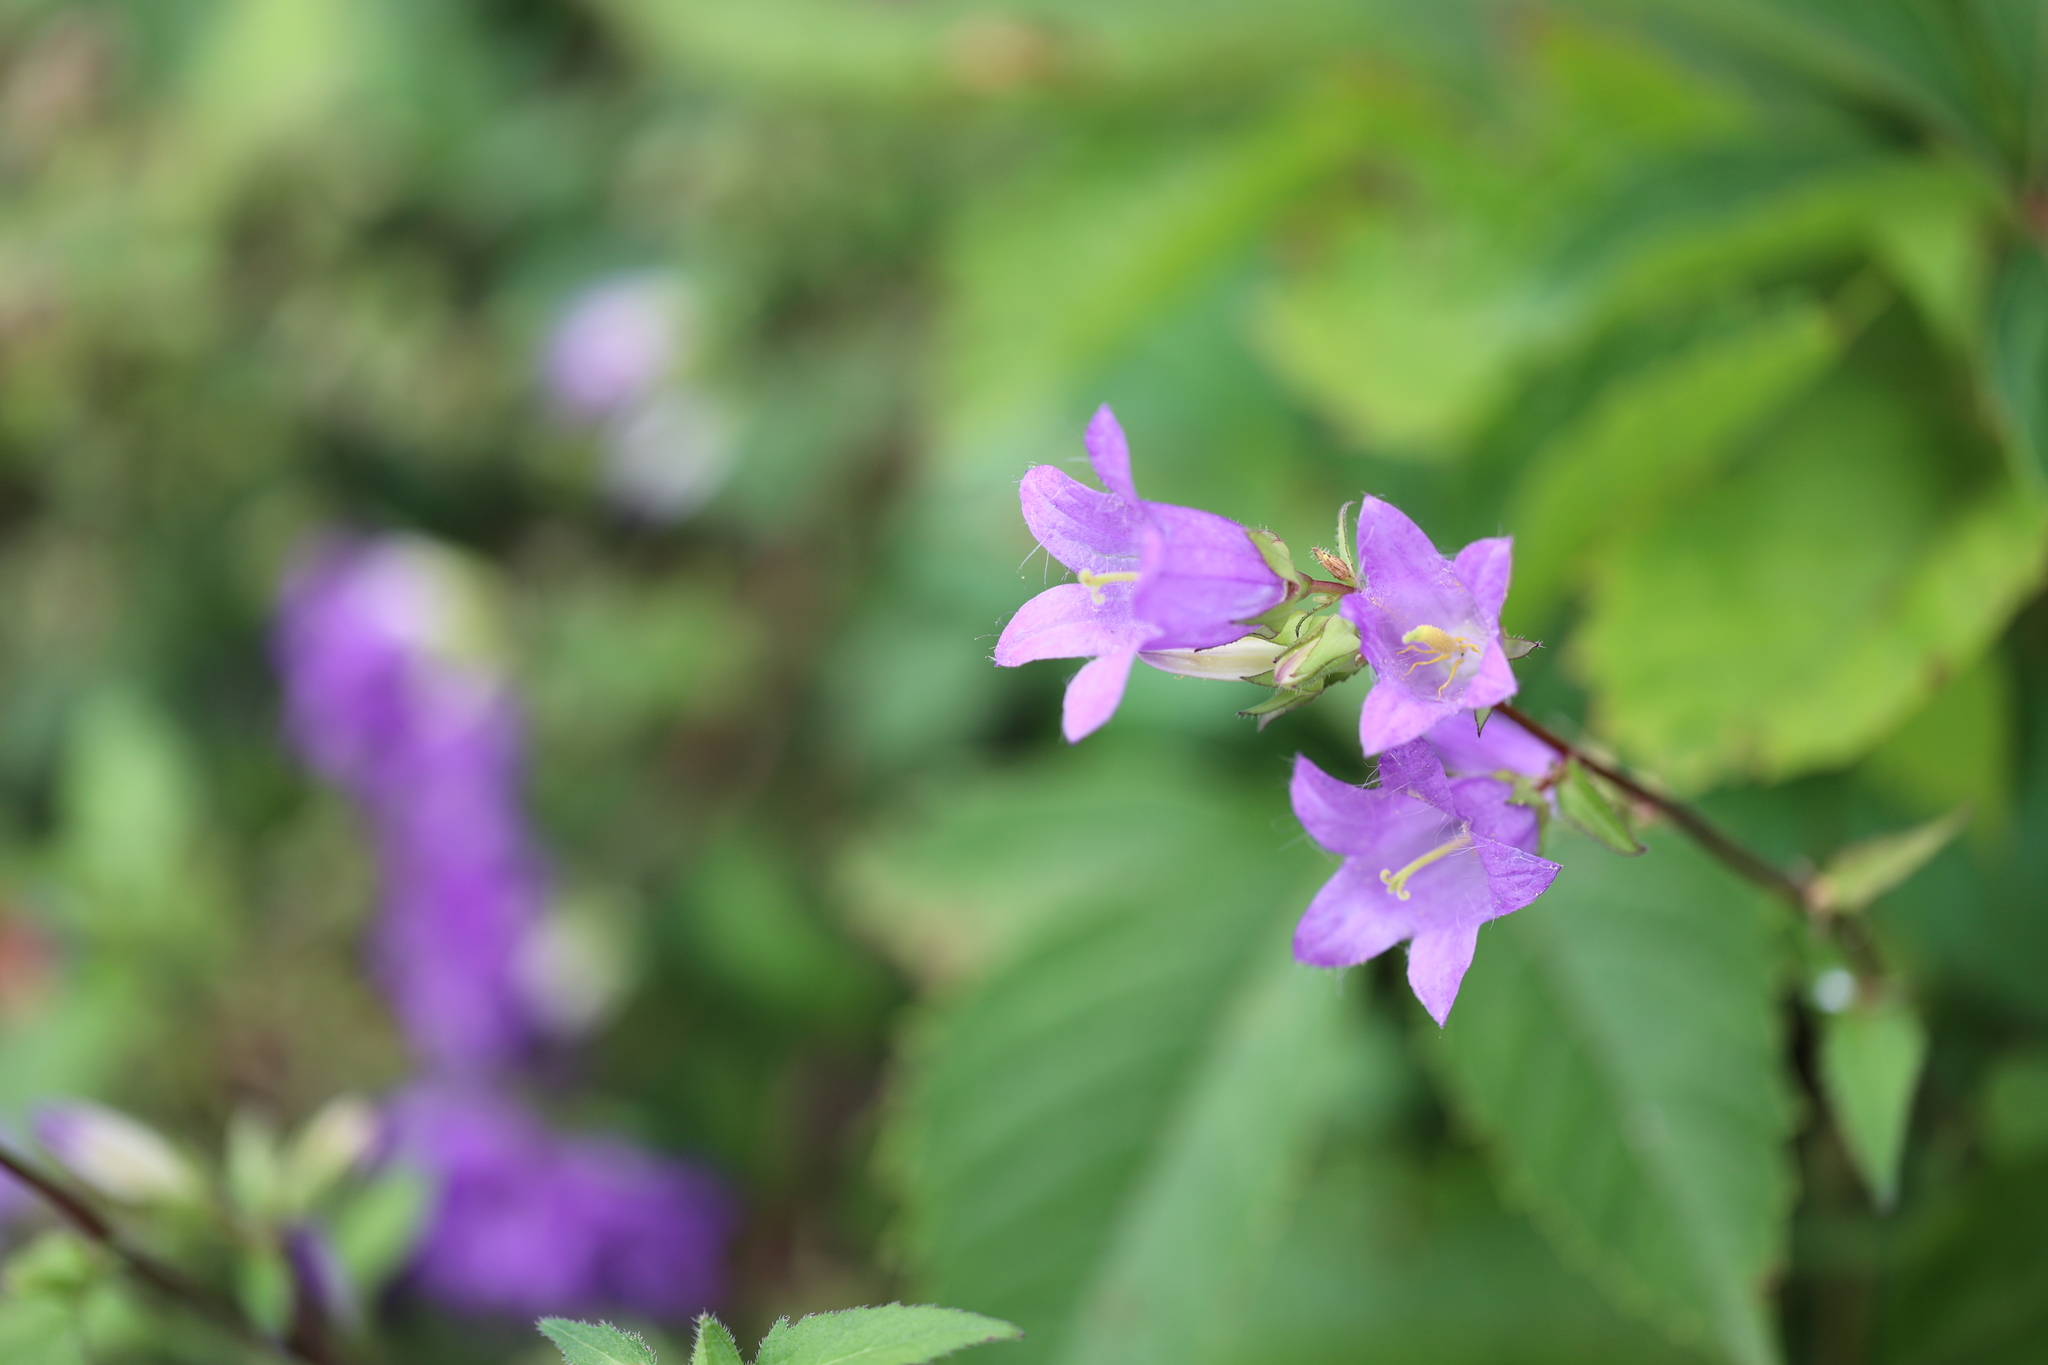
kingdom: Plantae
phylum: Tracheophyta
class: Magnoliopsida
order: Asterales
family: Campanulaceae
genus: Campanula
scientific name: Campanula trachelium
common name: Nettle-leaved bellflower
